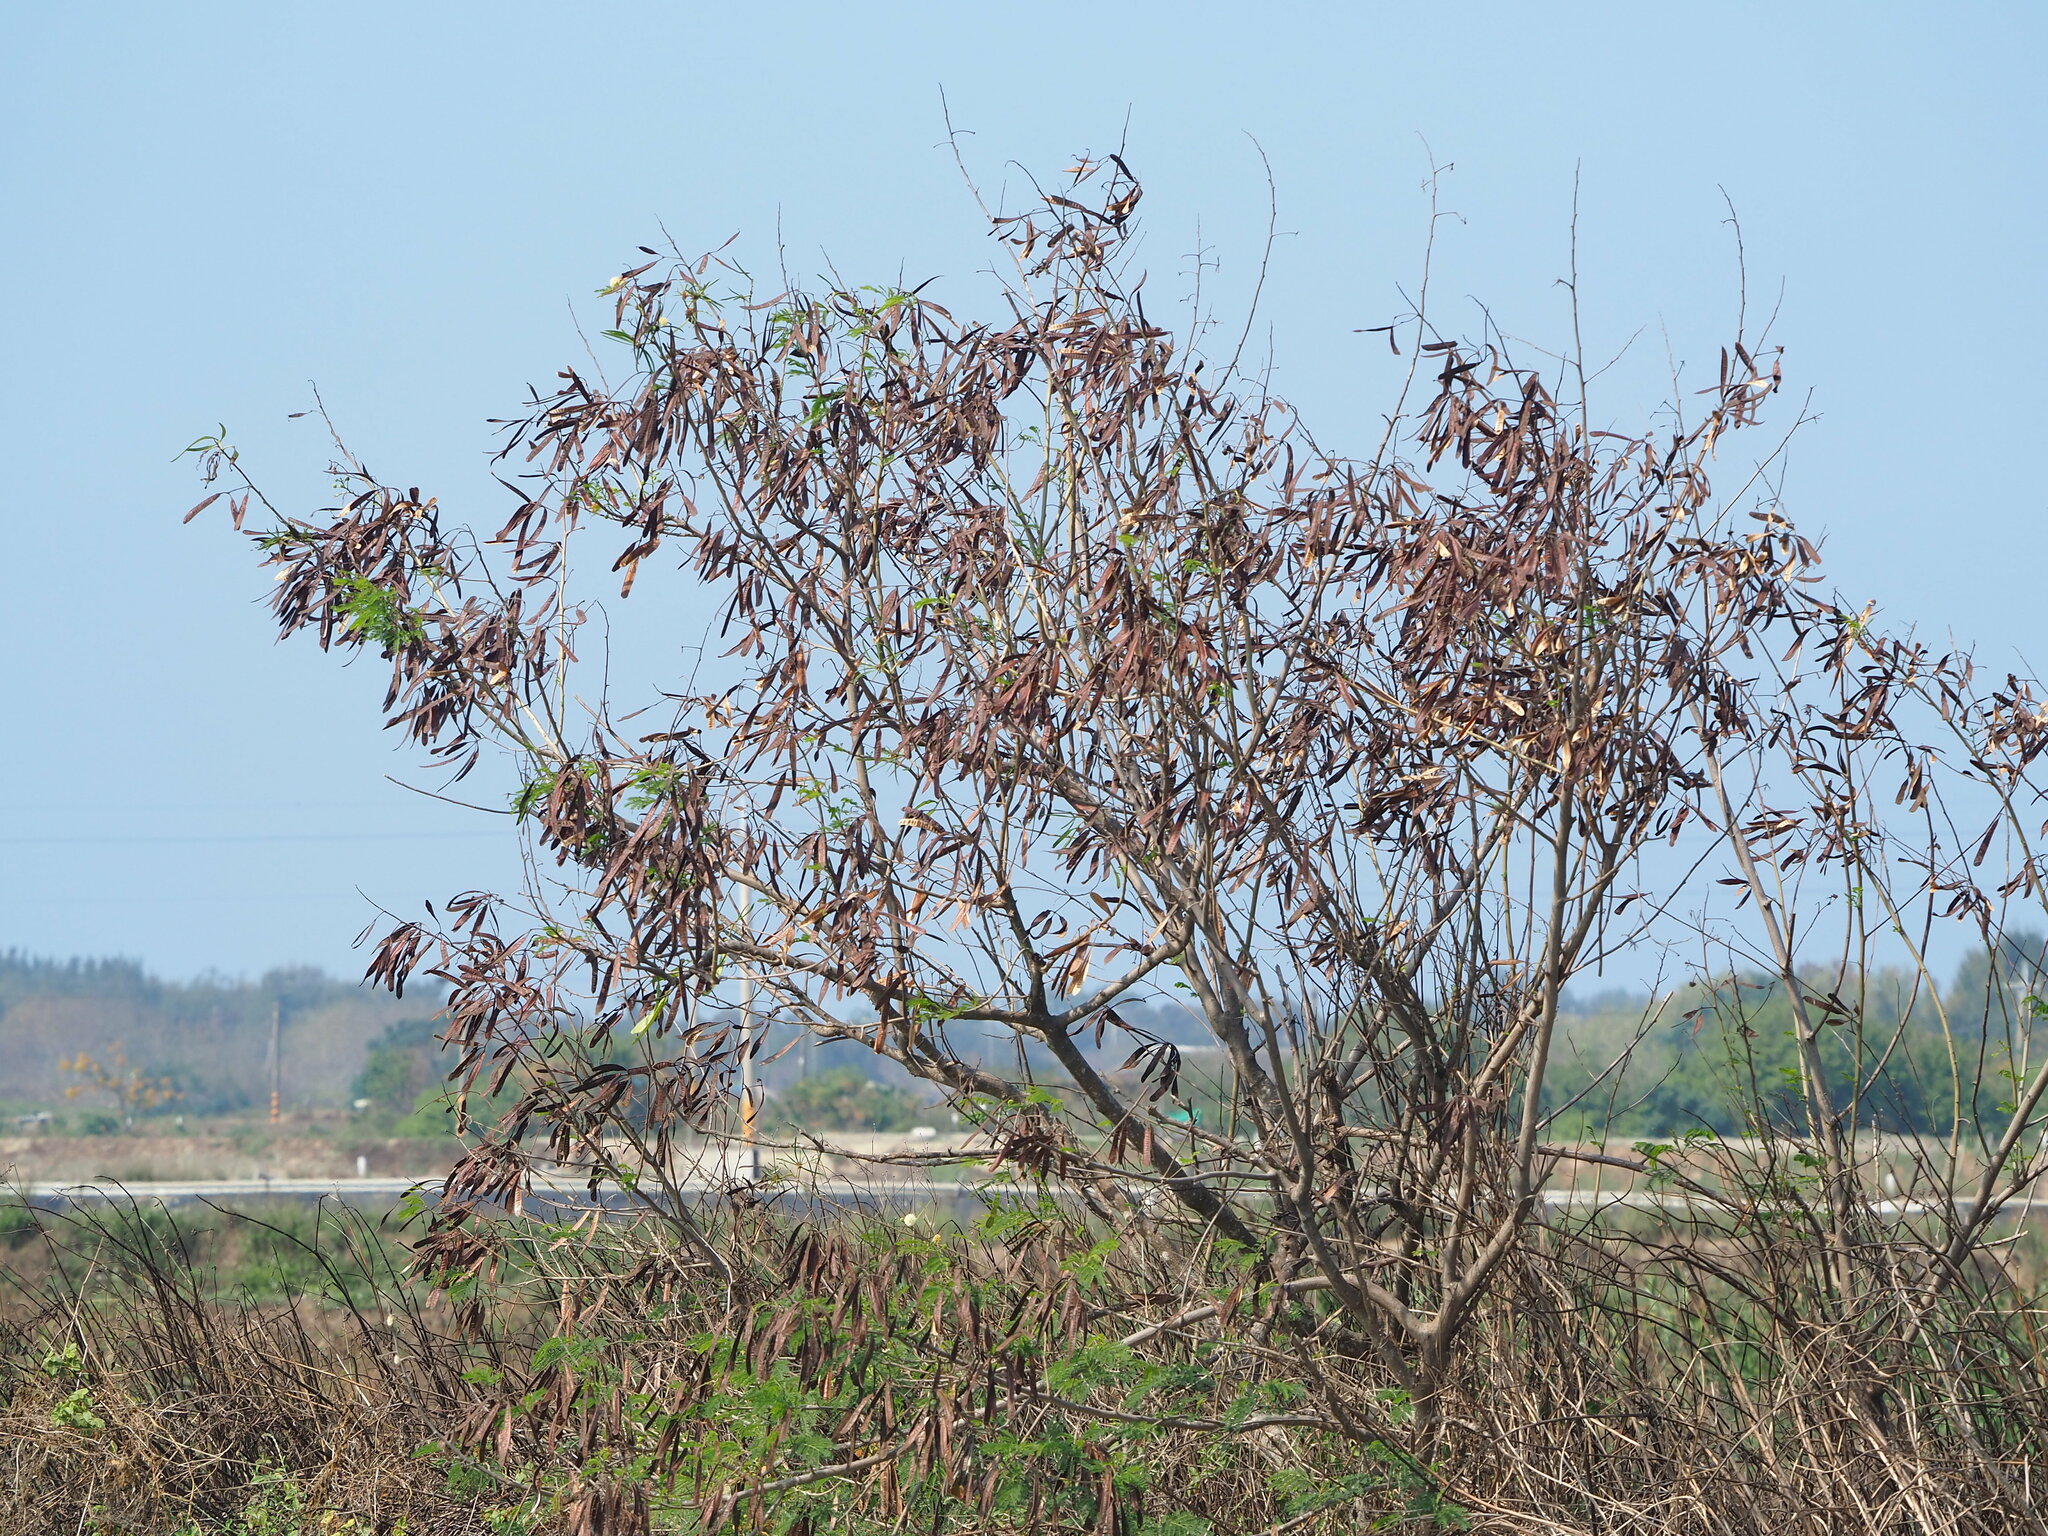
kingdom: Plantae
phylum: Tracheophyta
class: Magnoliopsida
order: Fabales
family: Fabaceae
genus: Leucaena
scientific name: Leucaena leucocephala
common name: White leadtree
